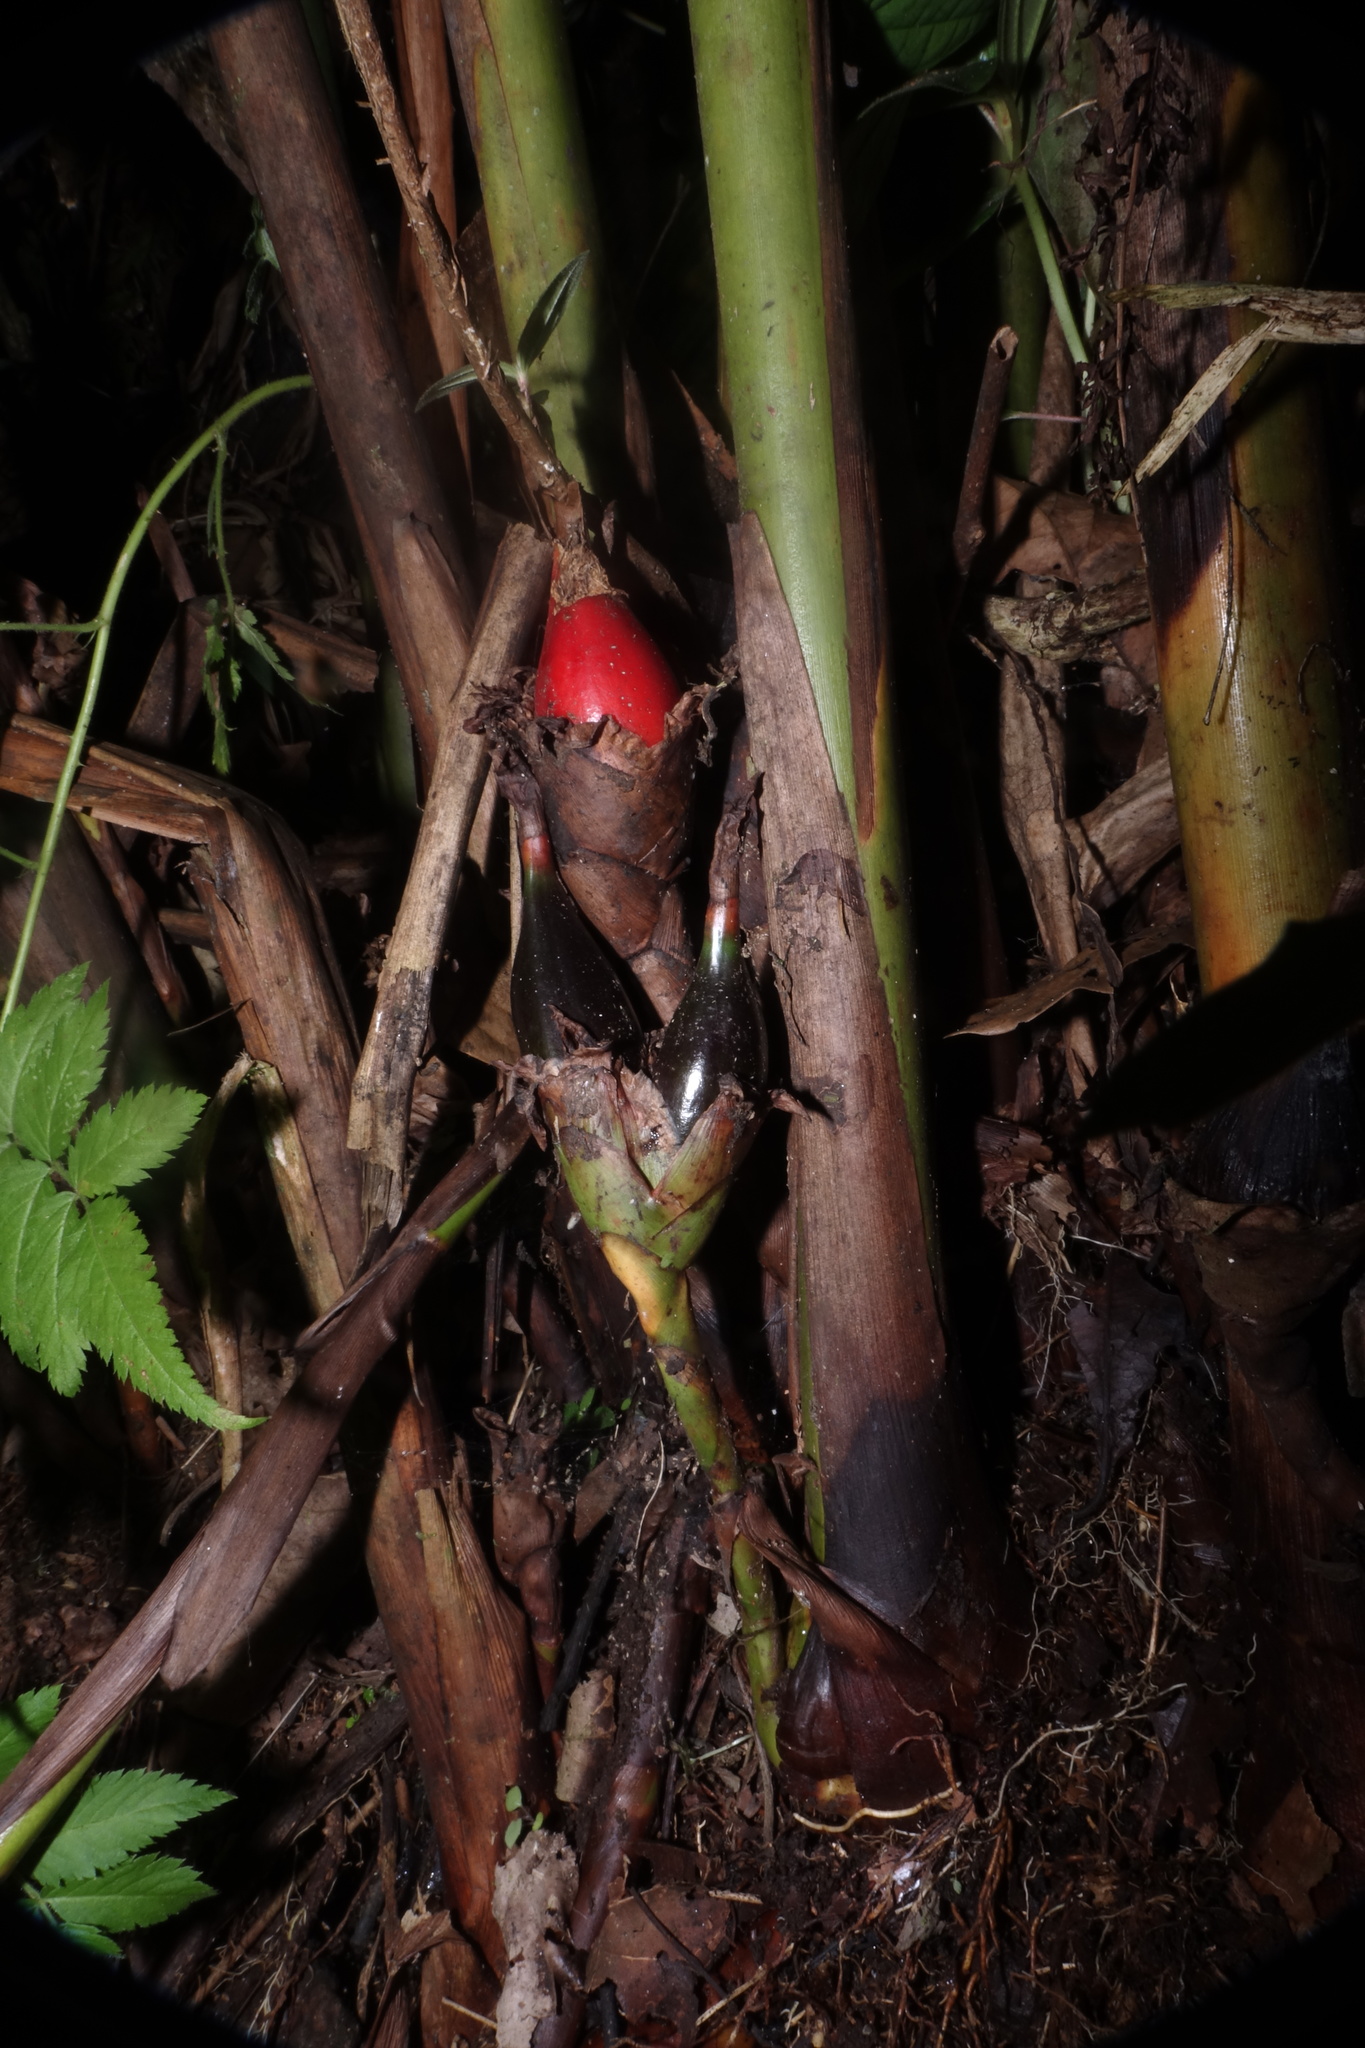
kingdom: Plantae
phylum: Tracheophyta
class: Liliopsida
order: Zingiberales
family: Zingiberaceae
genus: Aframomum
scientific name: Aframomum angustifolium
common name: Guinea grains
